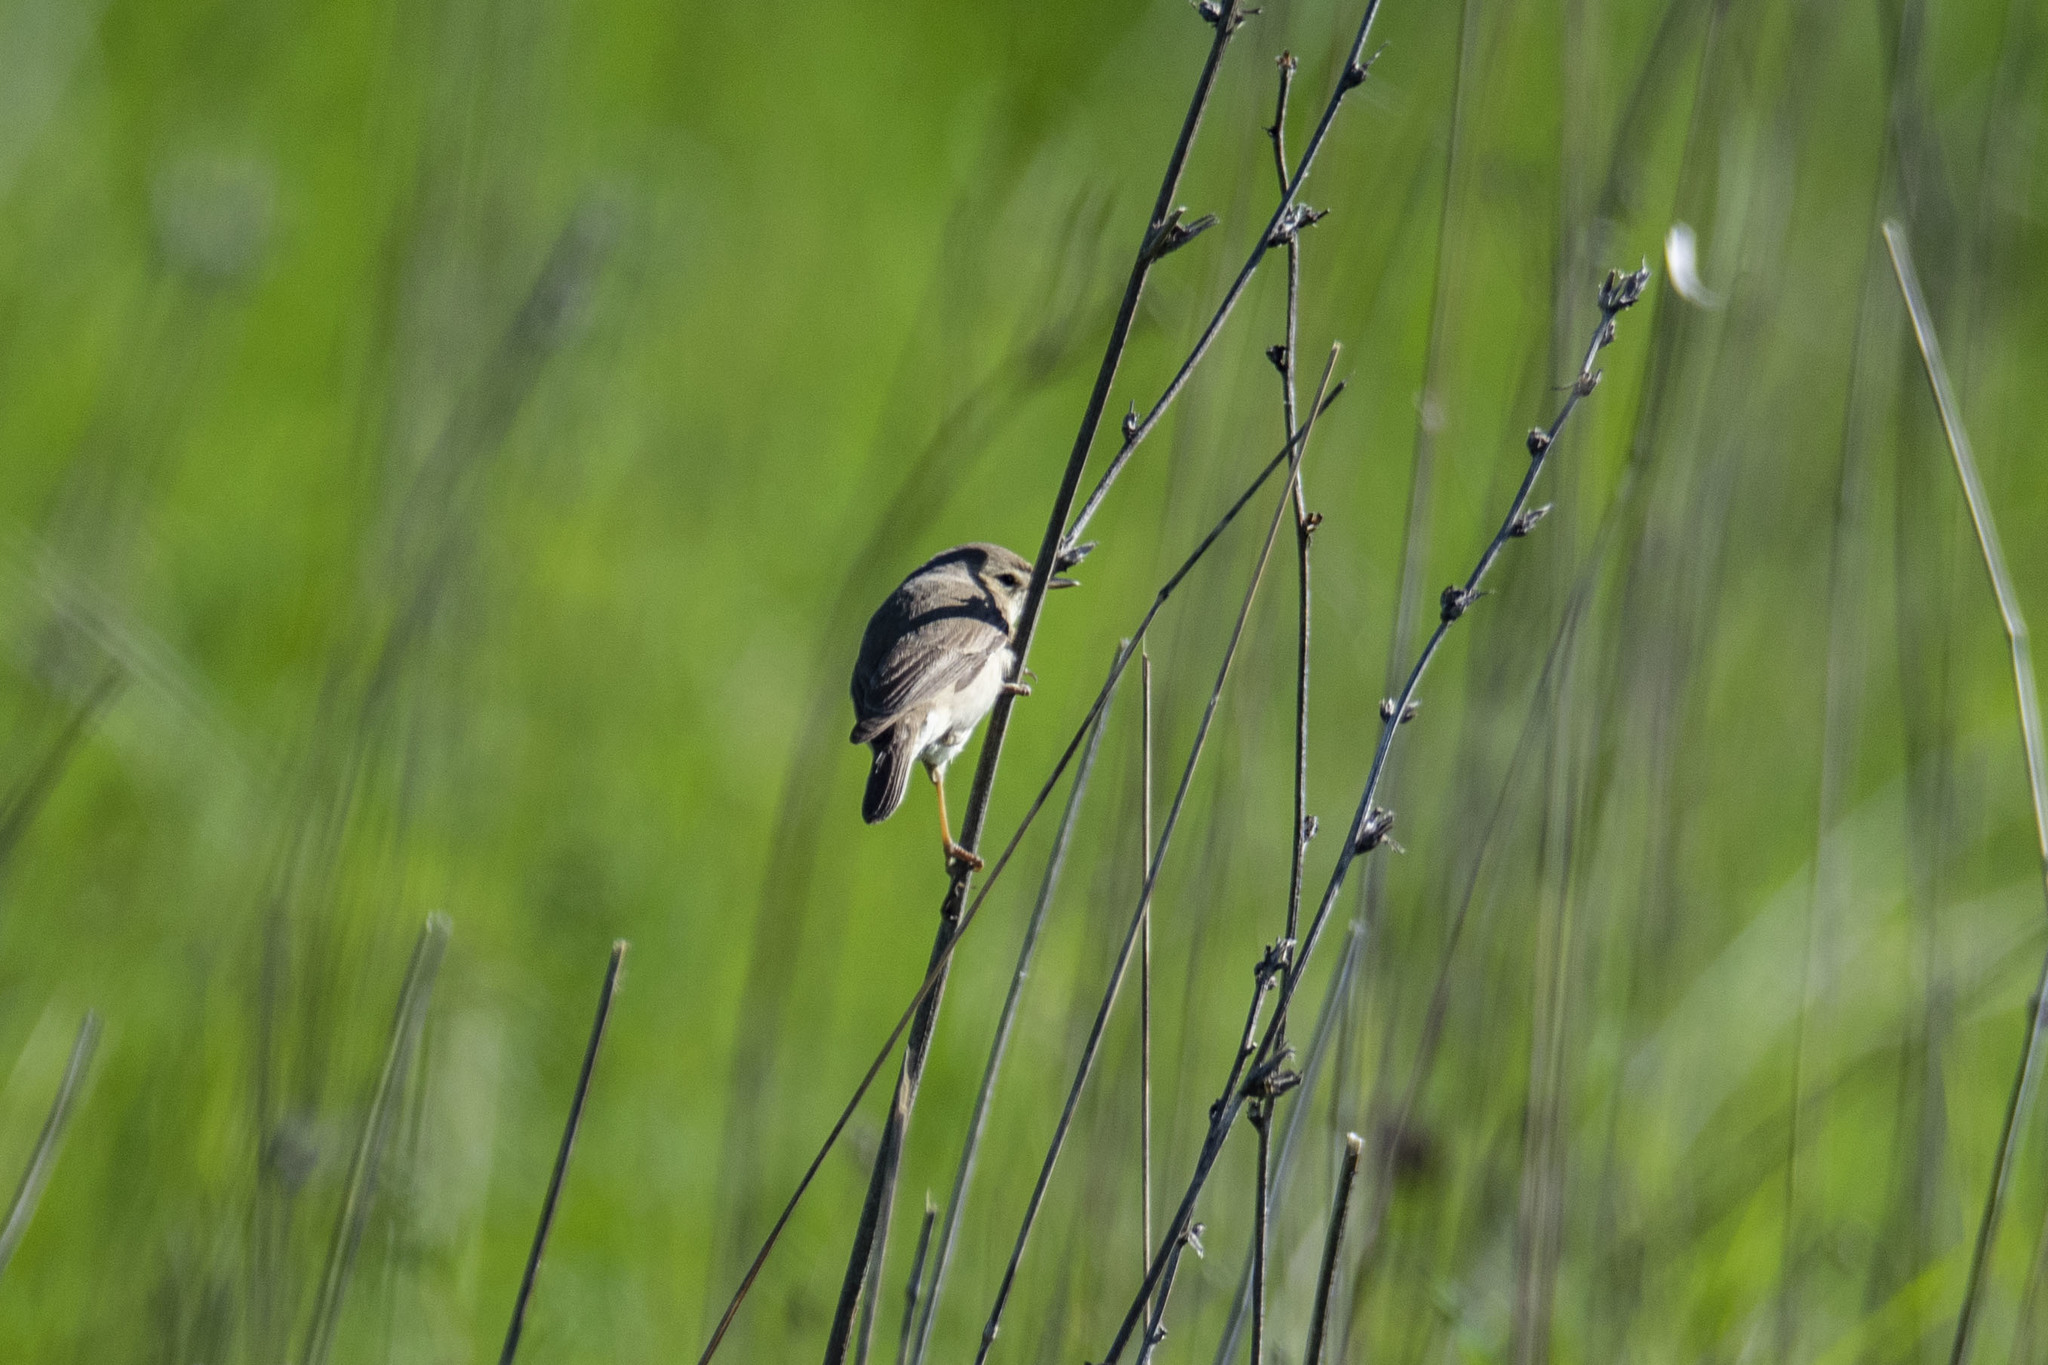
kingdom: Animalia
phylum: Chordata
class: Aves
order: Passeriformes
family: Acrocephalidae
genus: Iduna
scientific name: Iduna caligata
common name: Booted warbler
